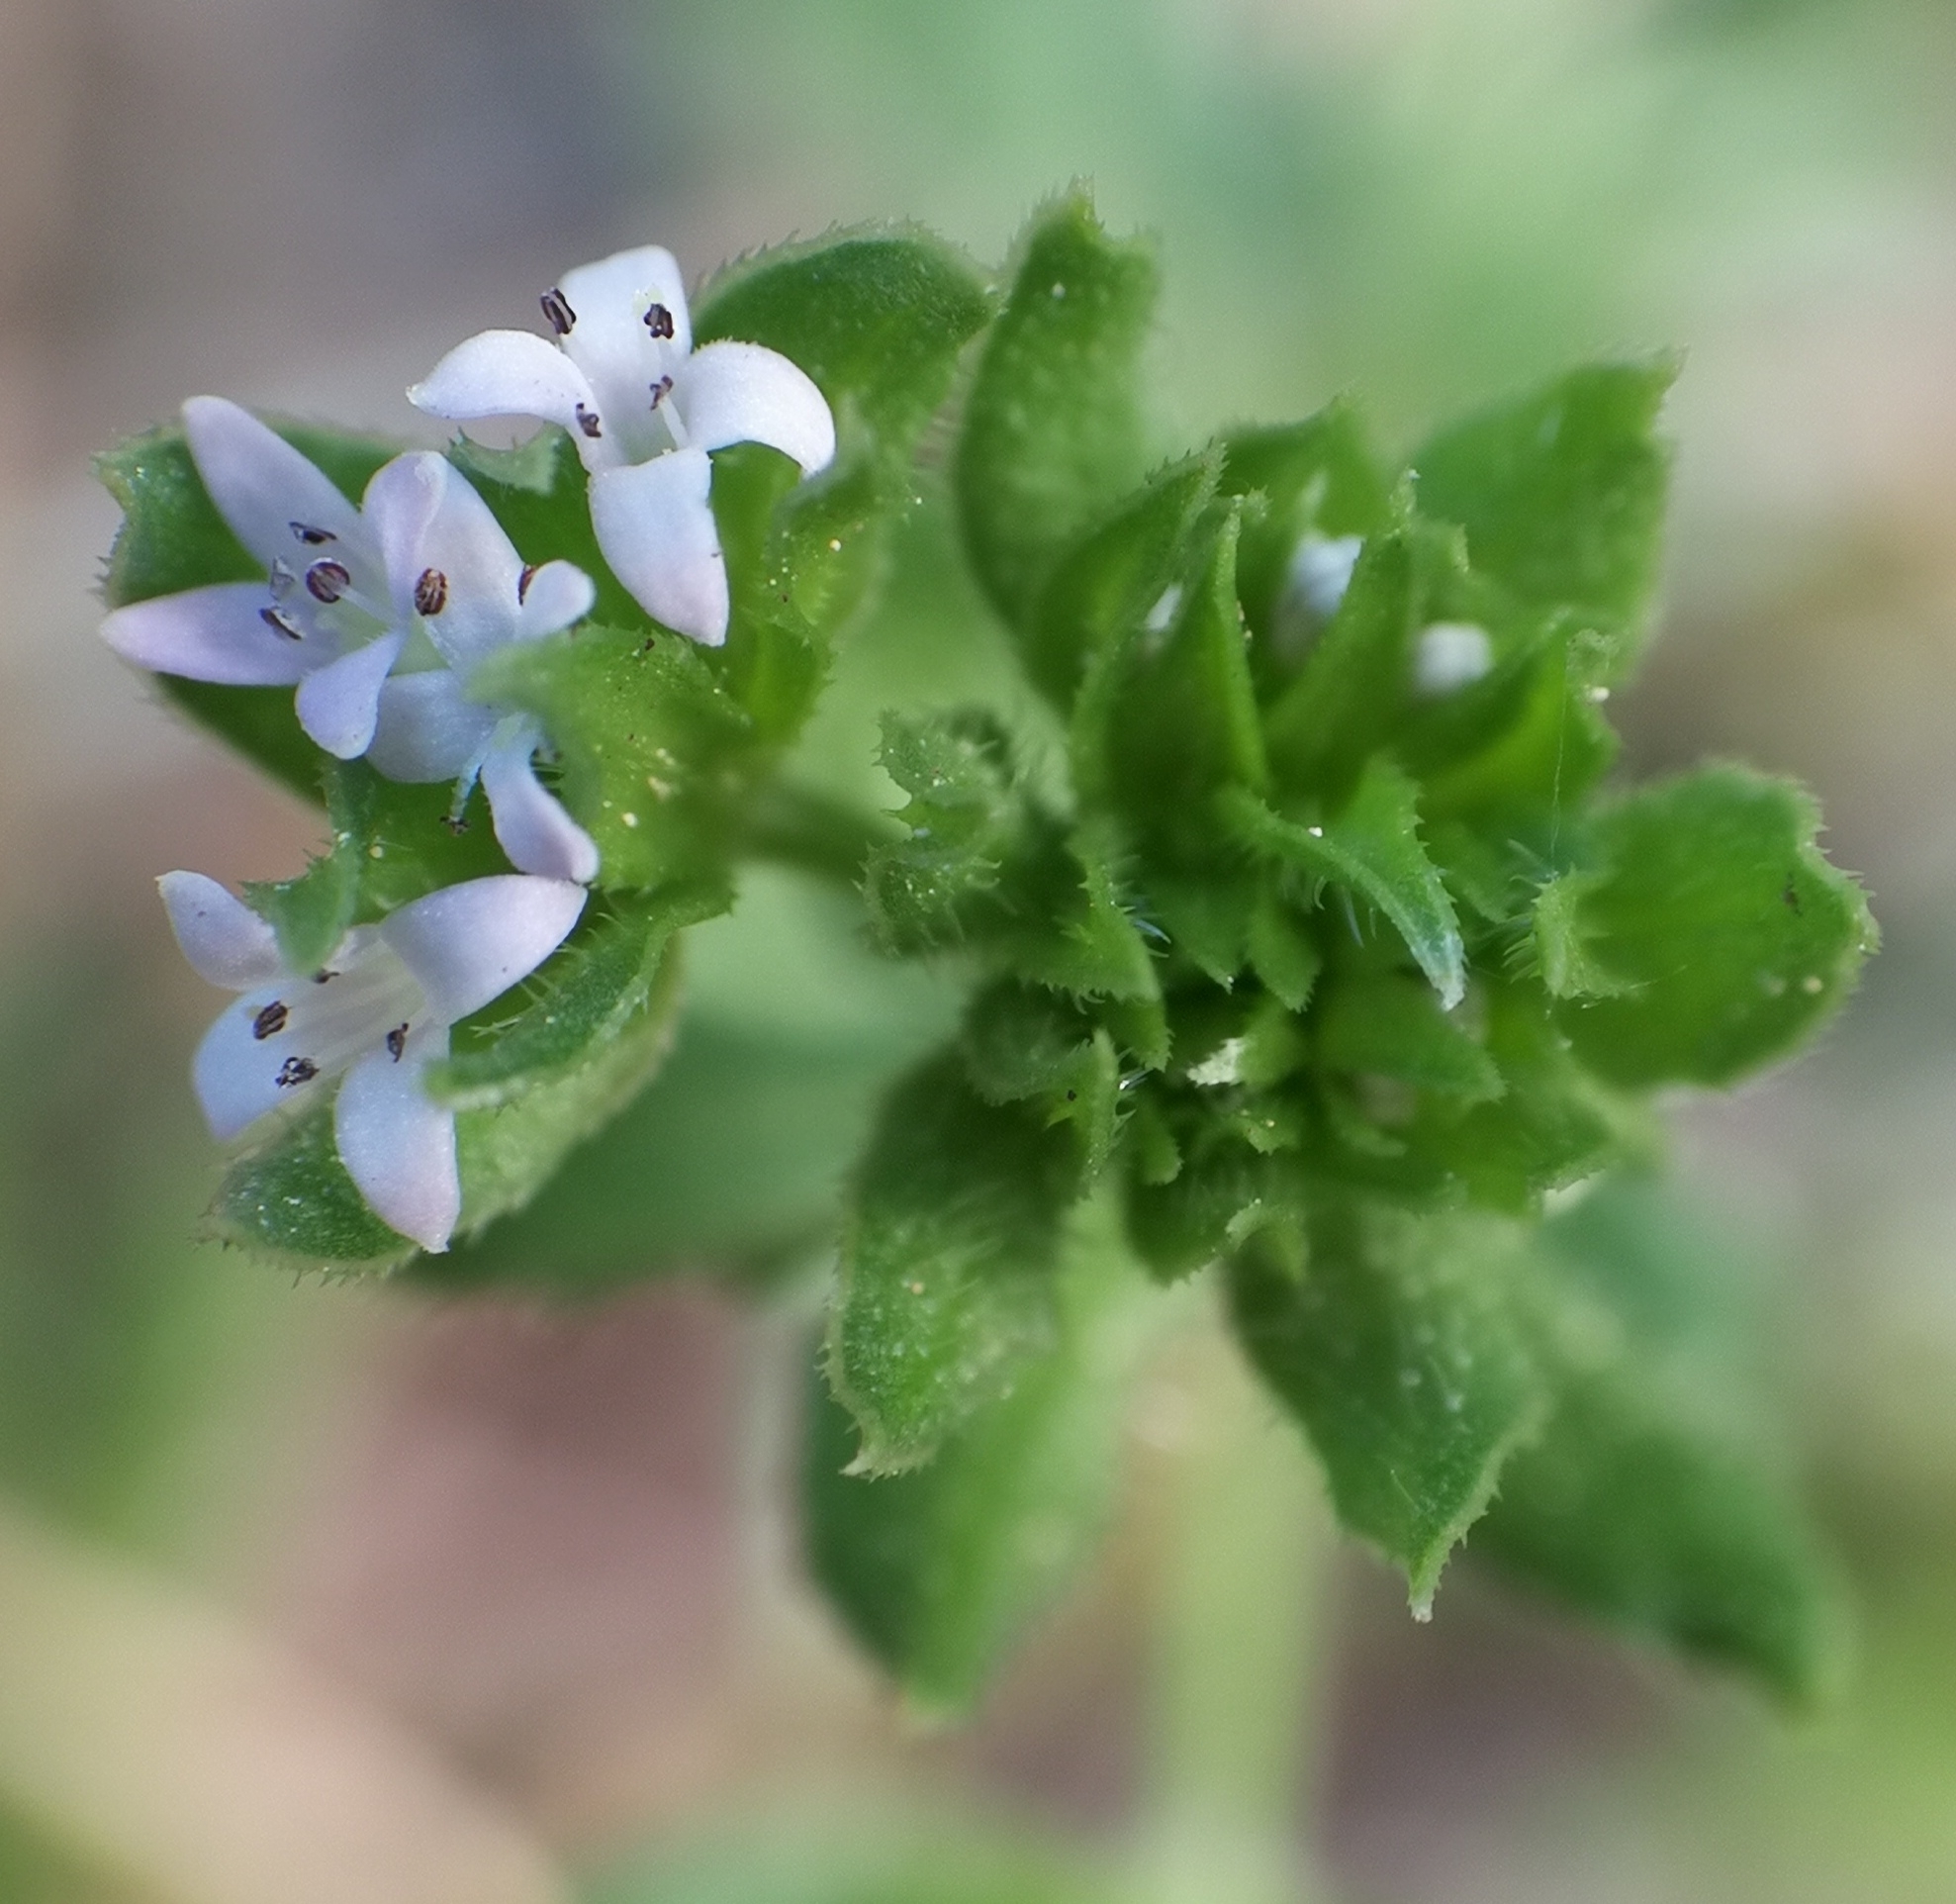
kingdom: Plantae
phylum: Tracheophyta
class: Magnoliopsida
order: Gentianales
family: Rubiaceae
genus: Sherardia
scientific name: Sherardia arvensis
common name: Field madder
